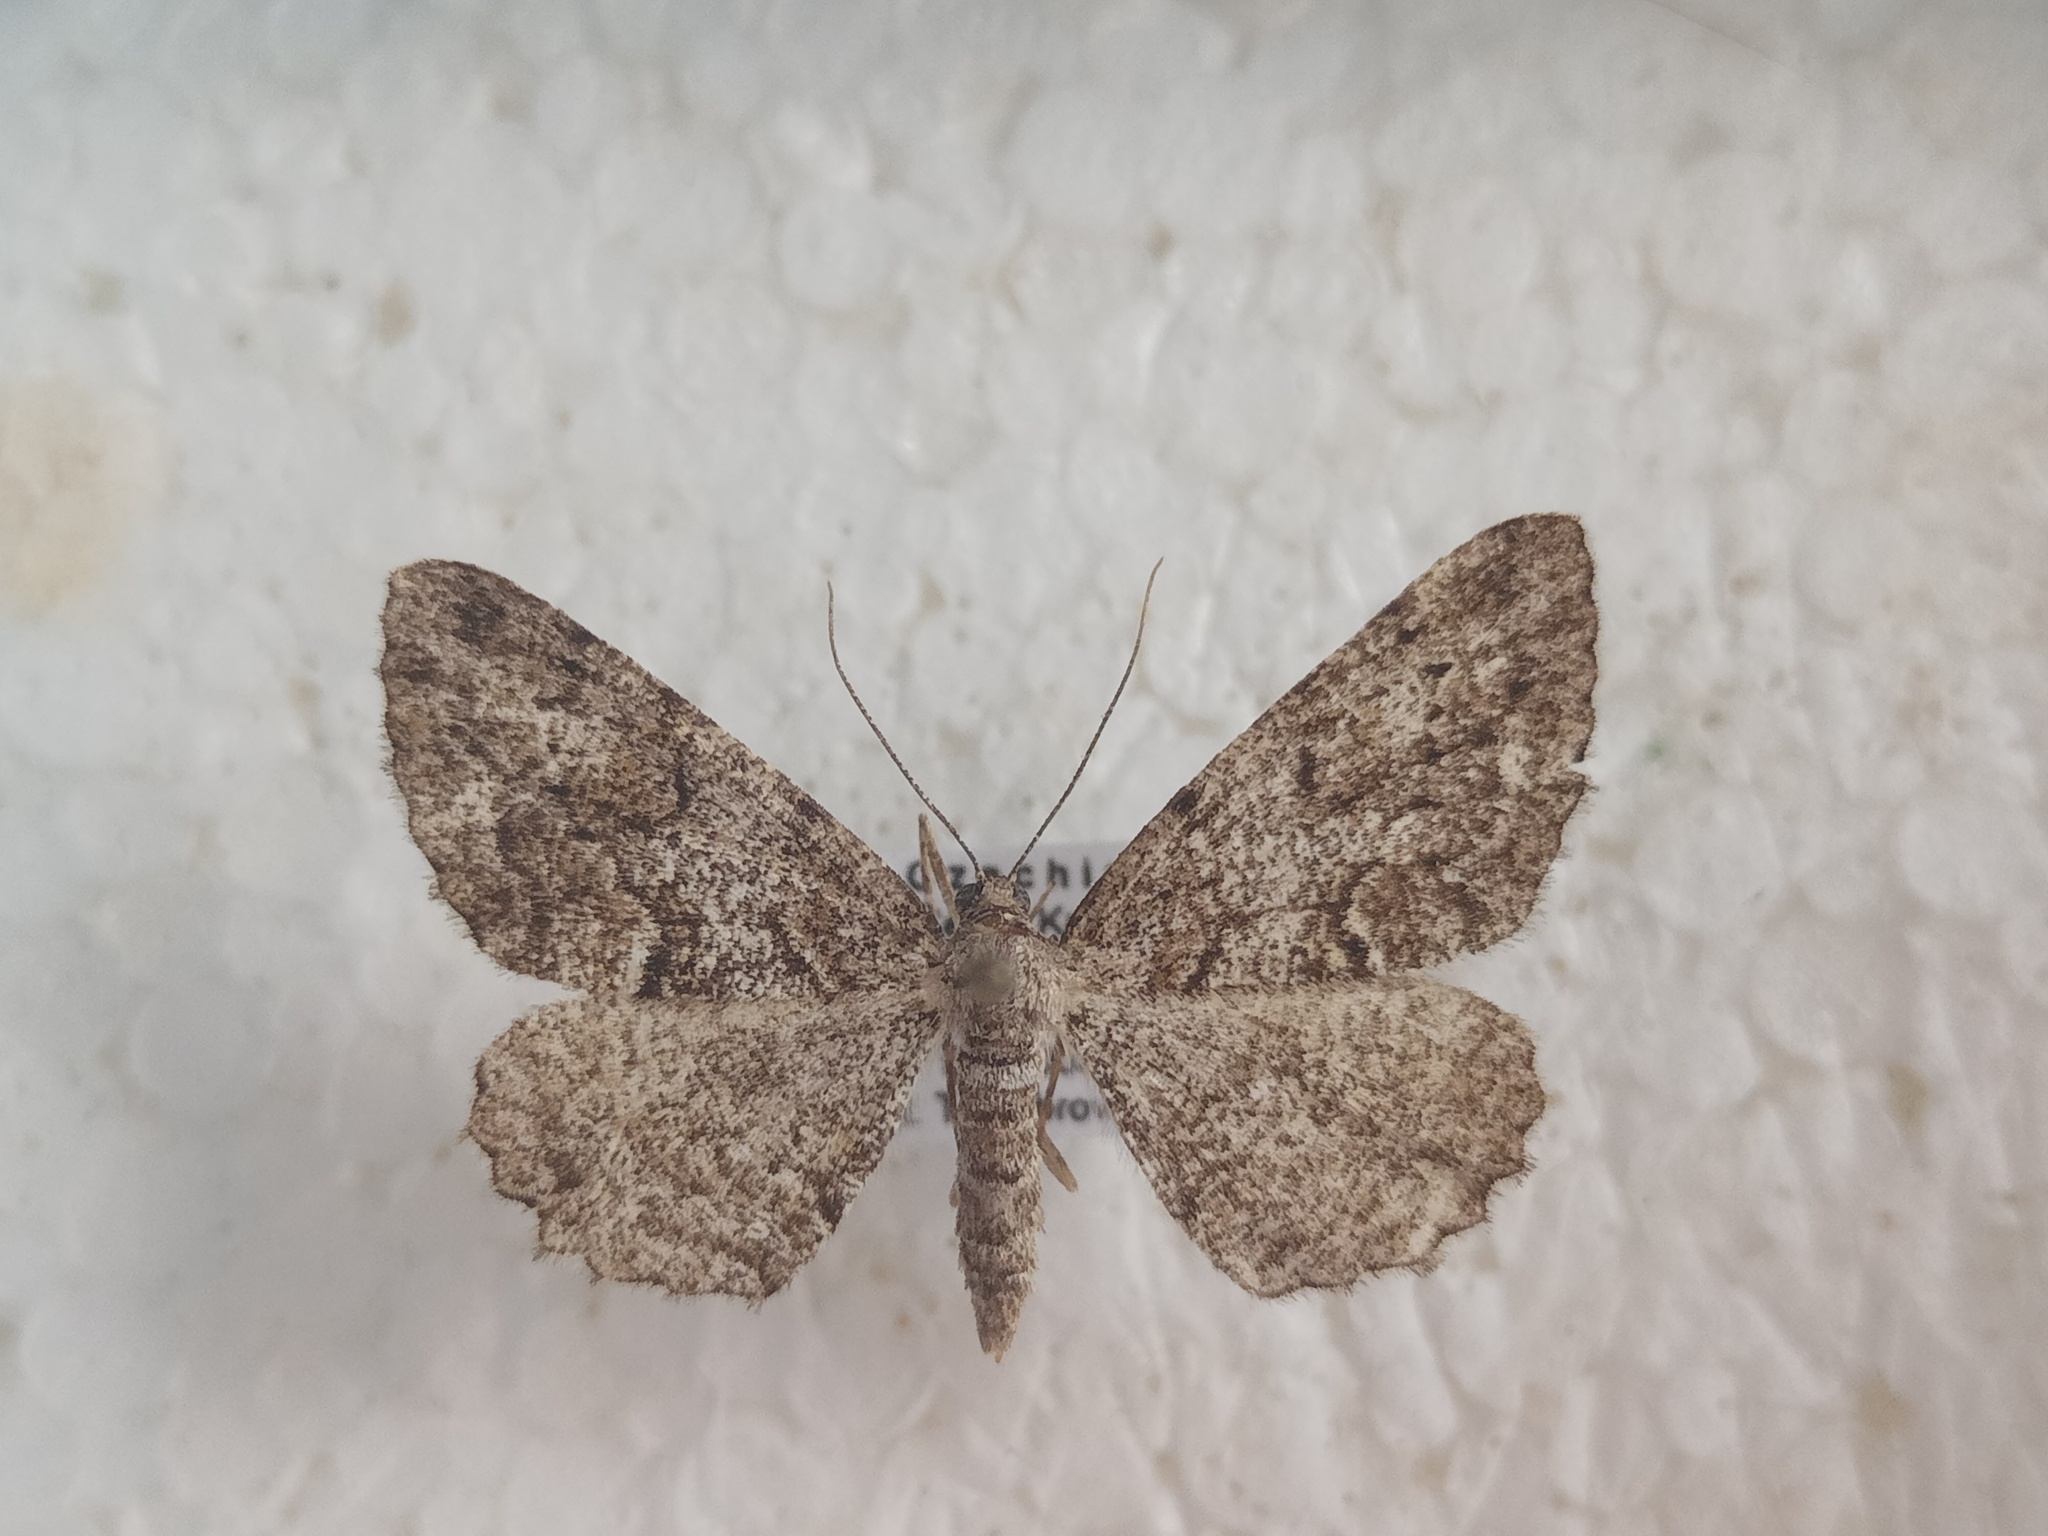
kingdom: Animalia
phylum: Arthropoda
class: Insecta
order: Lepidoptera
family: Geometridae
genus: Peribatodes
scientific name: Peribatodes secundaria
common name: Feathered beauty
